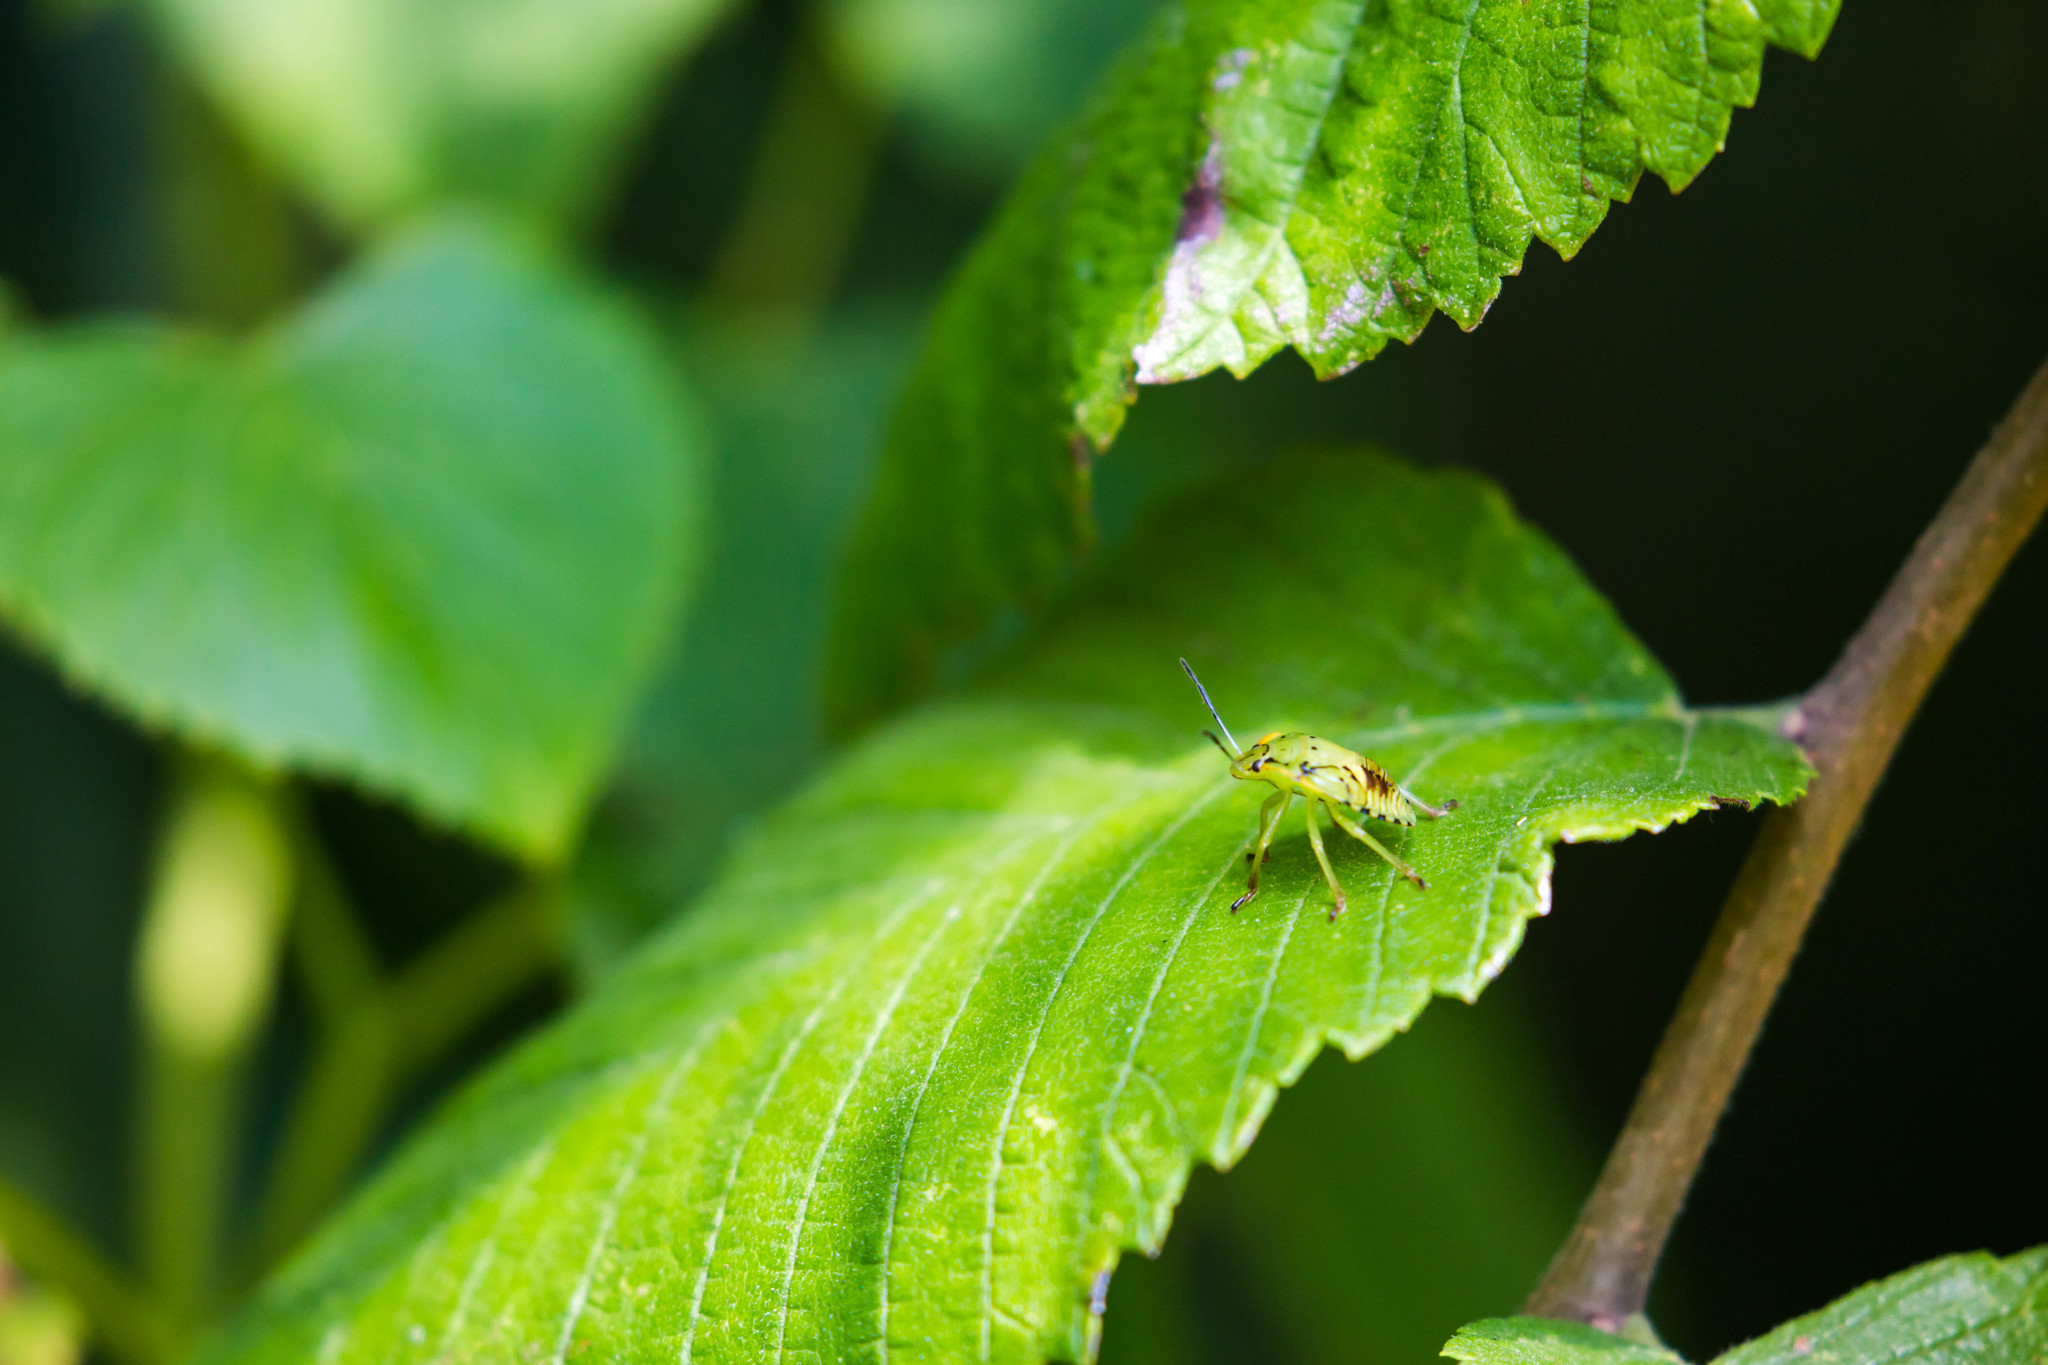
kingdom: Animalia
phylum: Arthropoda
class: Insecta
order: Hemiptera
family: Pentatomidae
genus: Chinavia
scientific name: Chinavia hilaris
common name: Green stink bug
